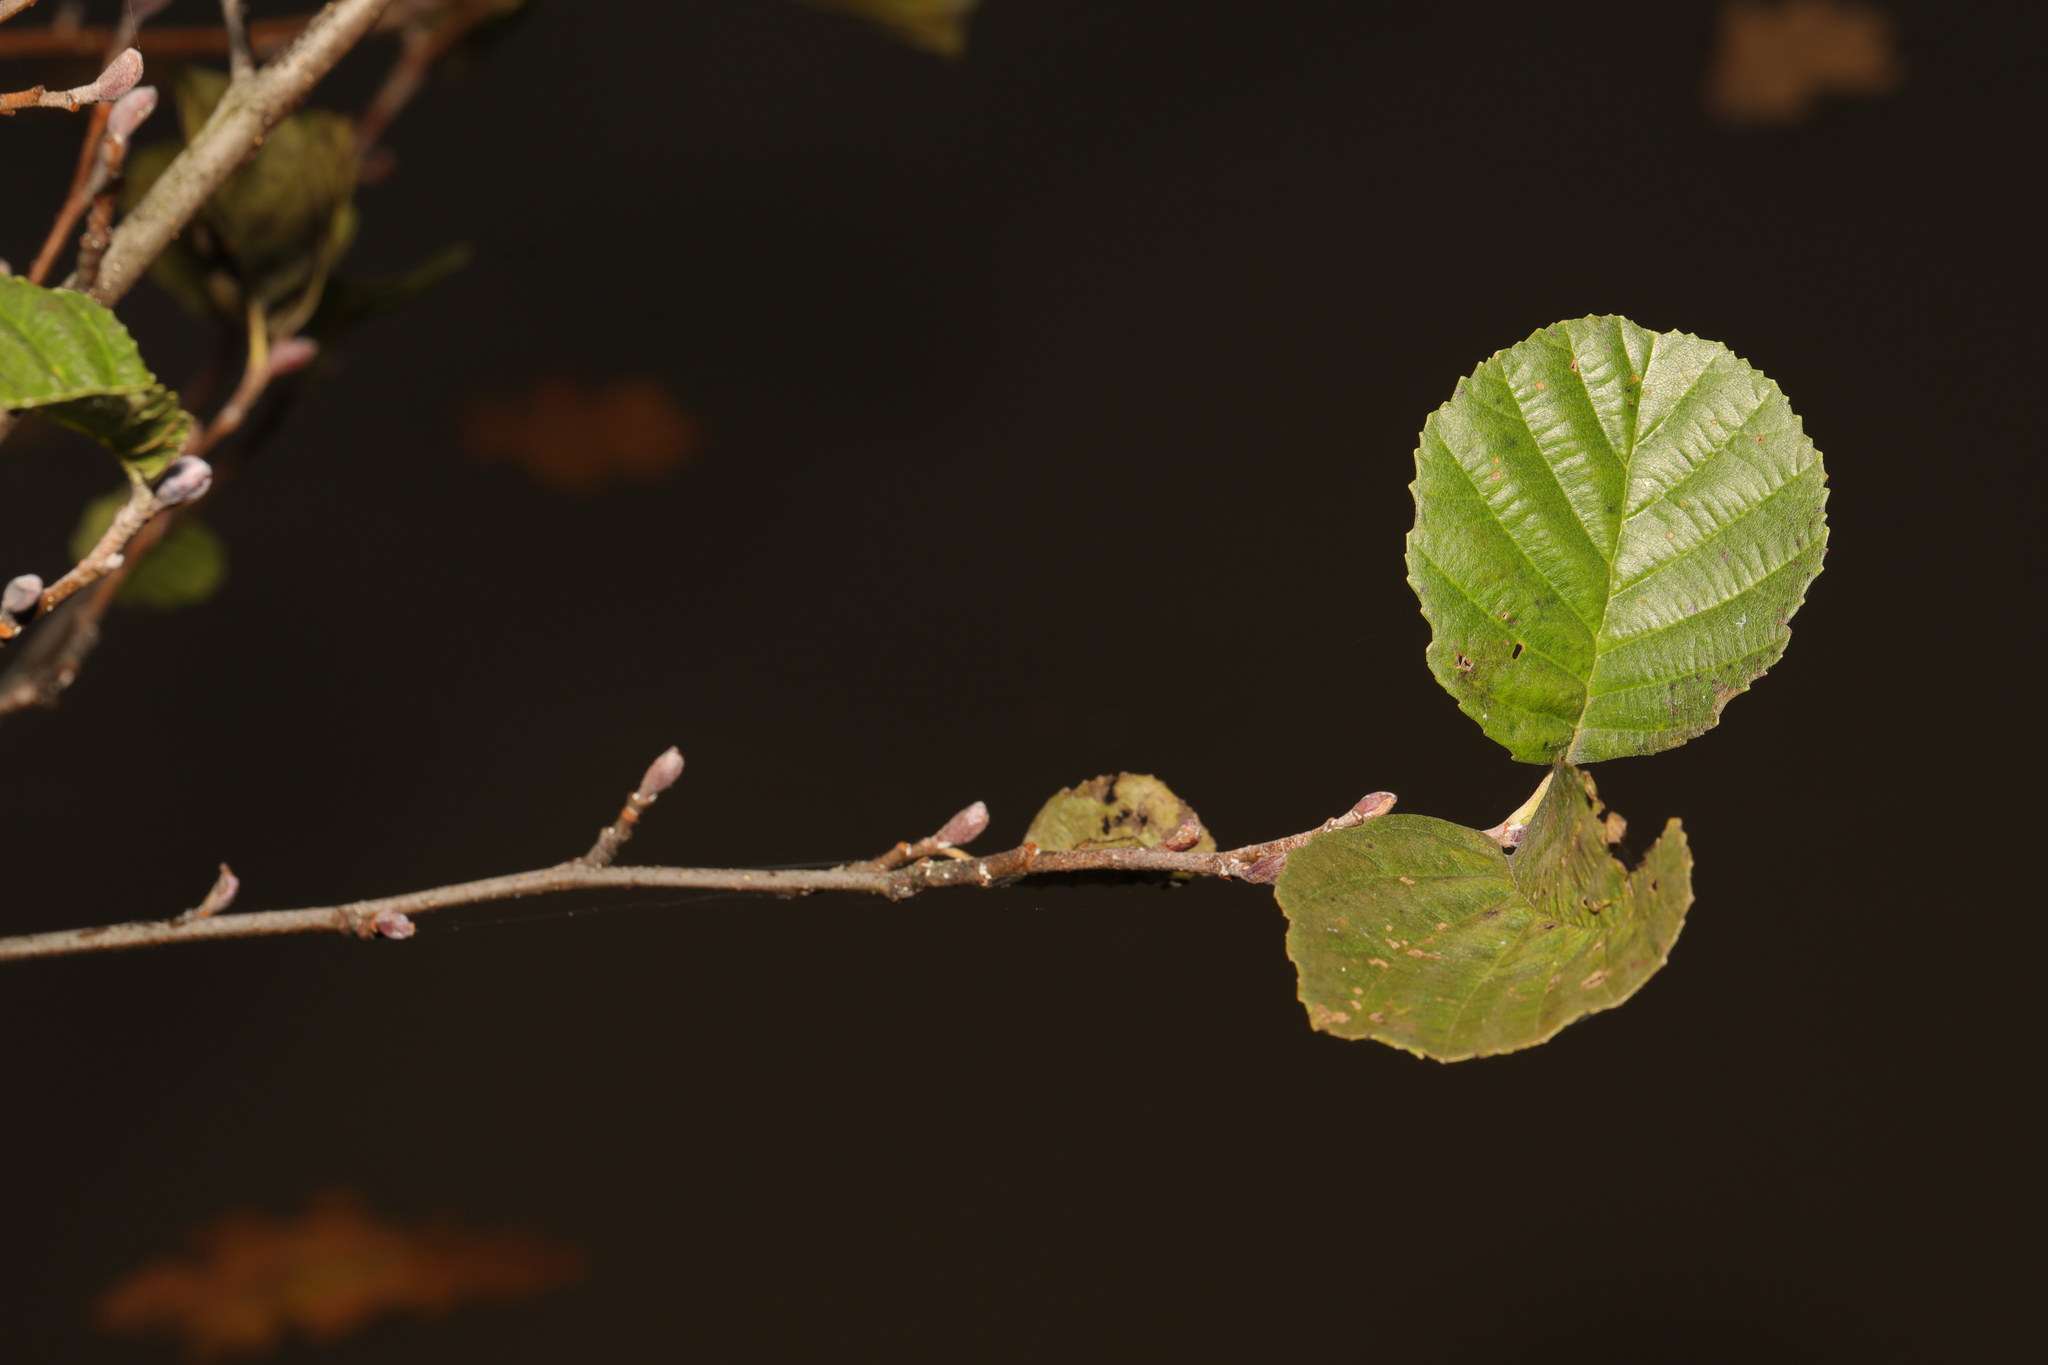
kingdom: Plantae
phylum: Tracheophyta
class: Magnoliopsida
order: Fagales
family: Betulaceae
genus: Alnus
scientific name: Alnus glutinosa
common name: Black alder
